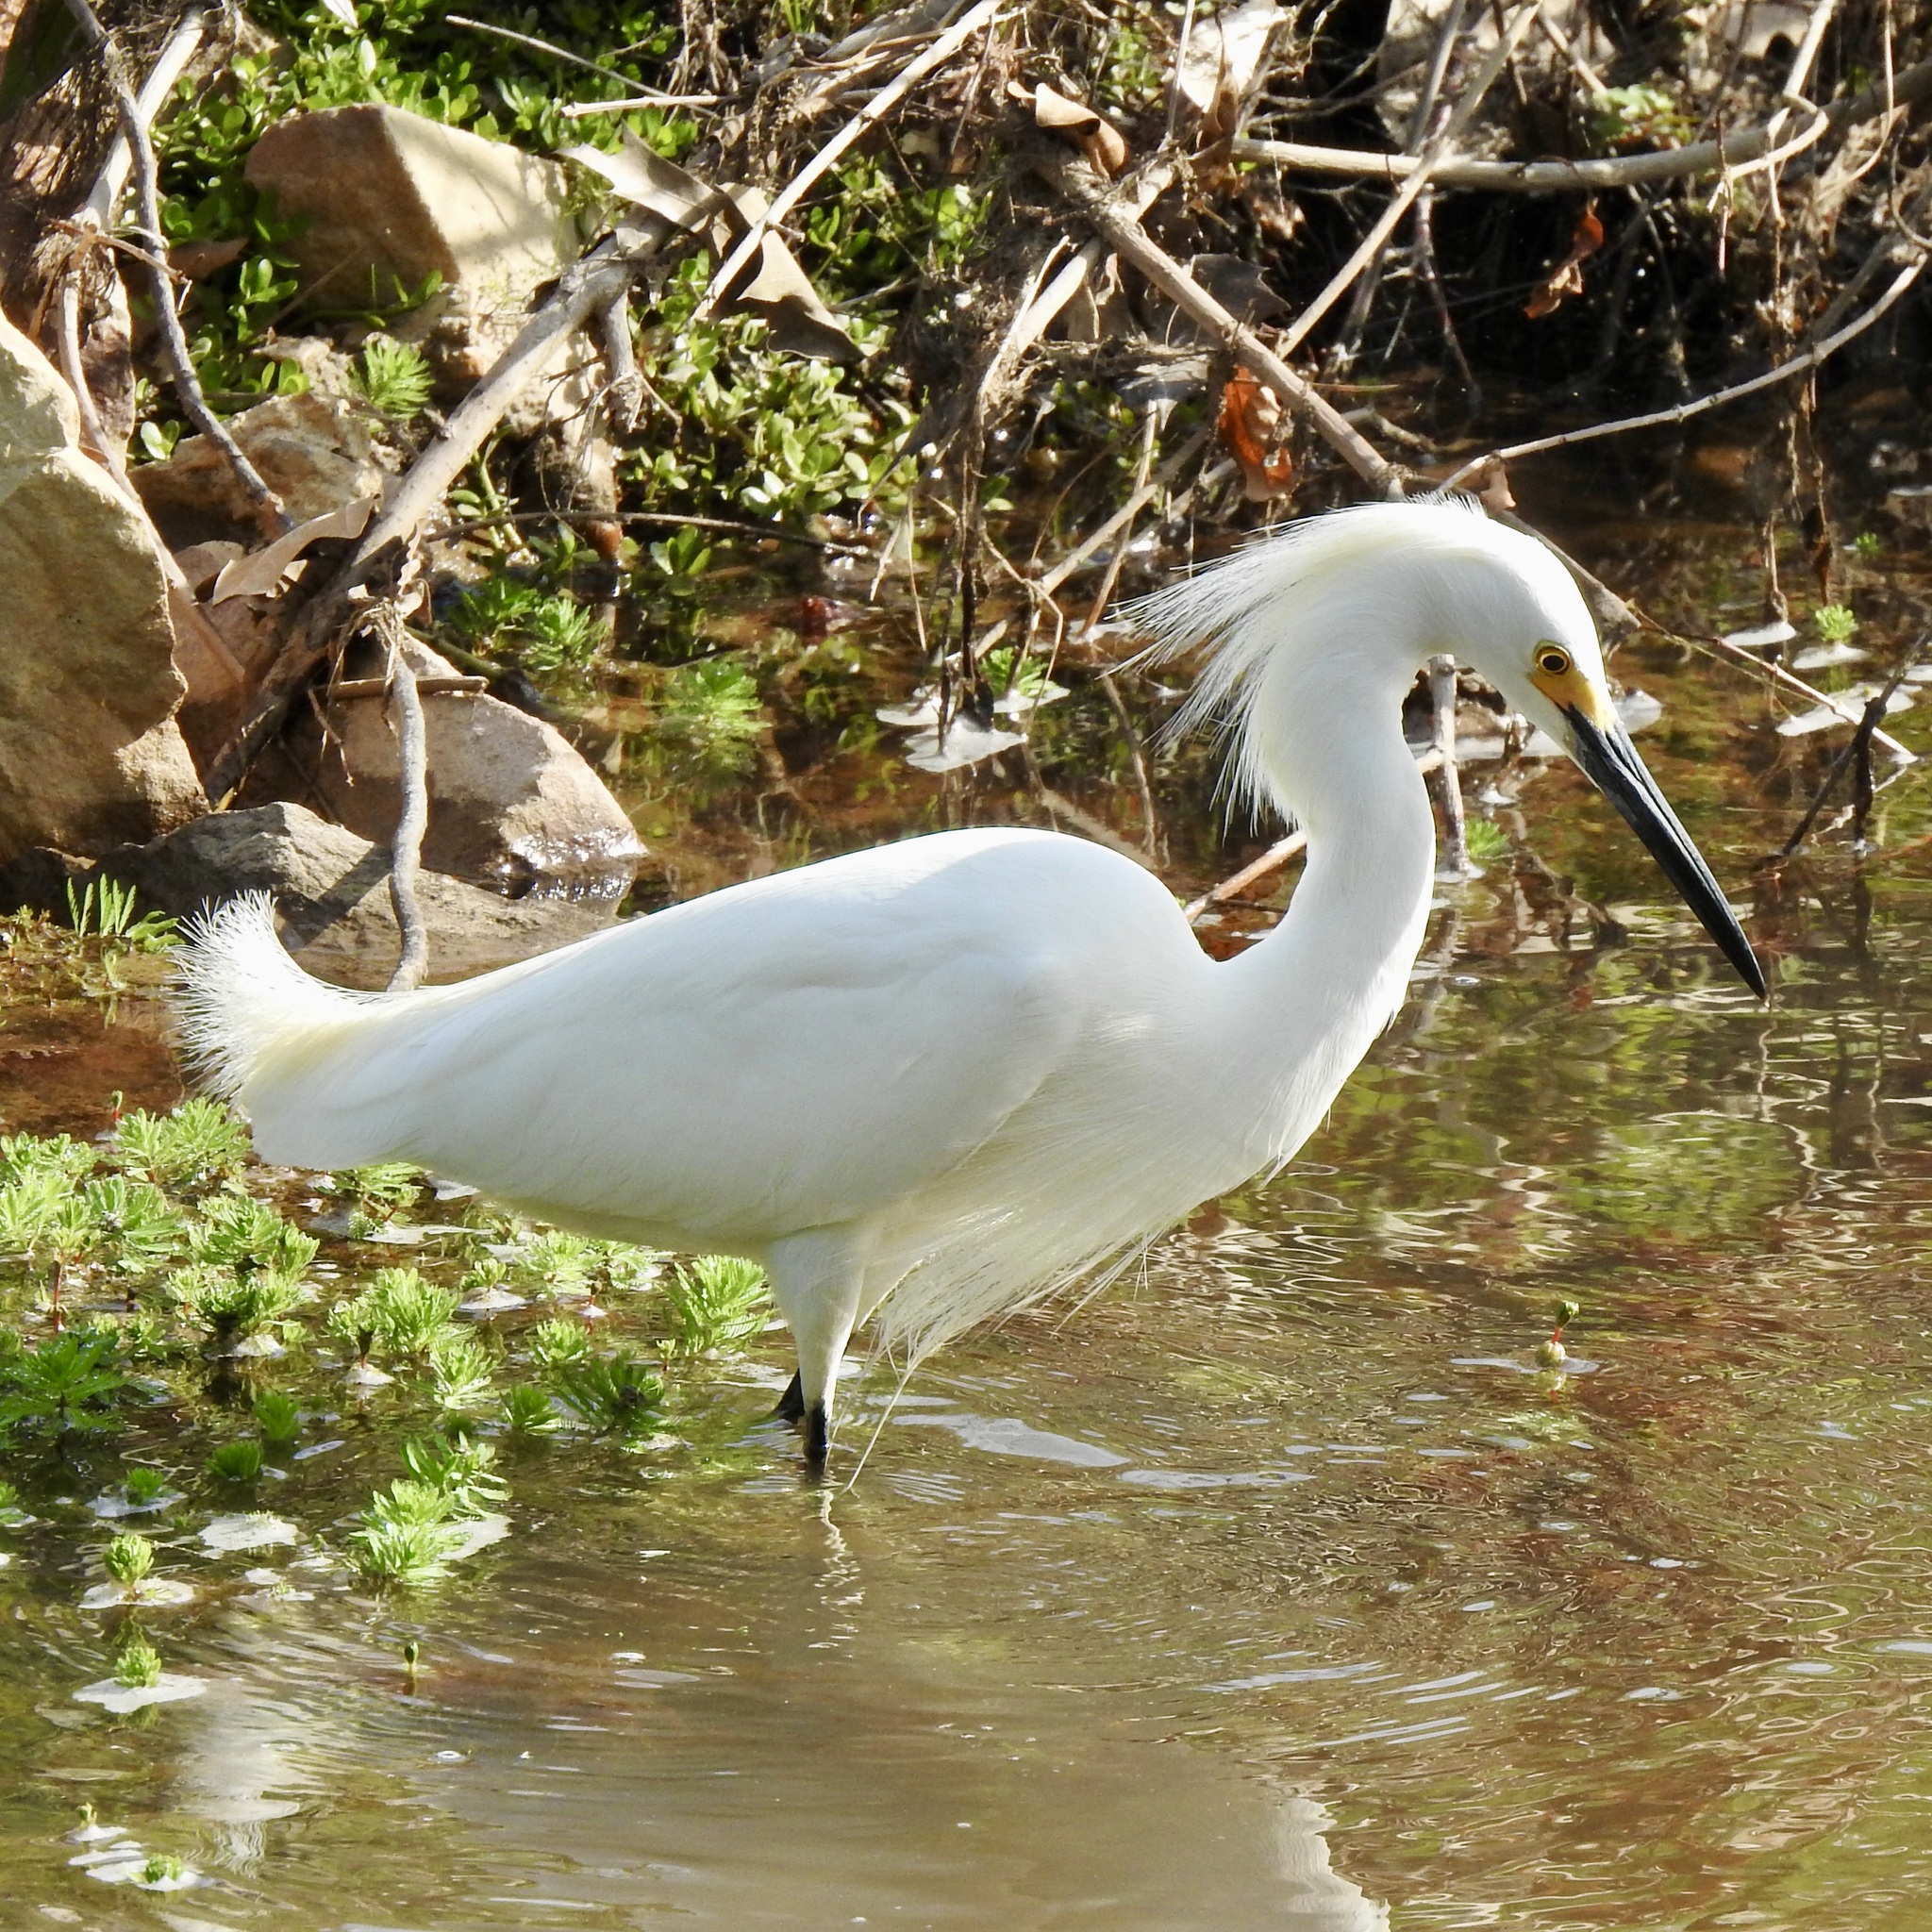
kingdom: Animalia
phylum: Chordata
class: Aves
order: Pelecaniformes
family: Ardeidae
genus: Egretta
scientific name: Egretta thula
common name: Snowy egret
